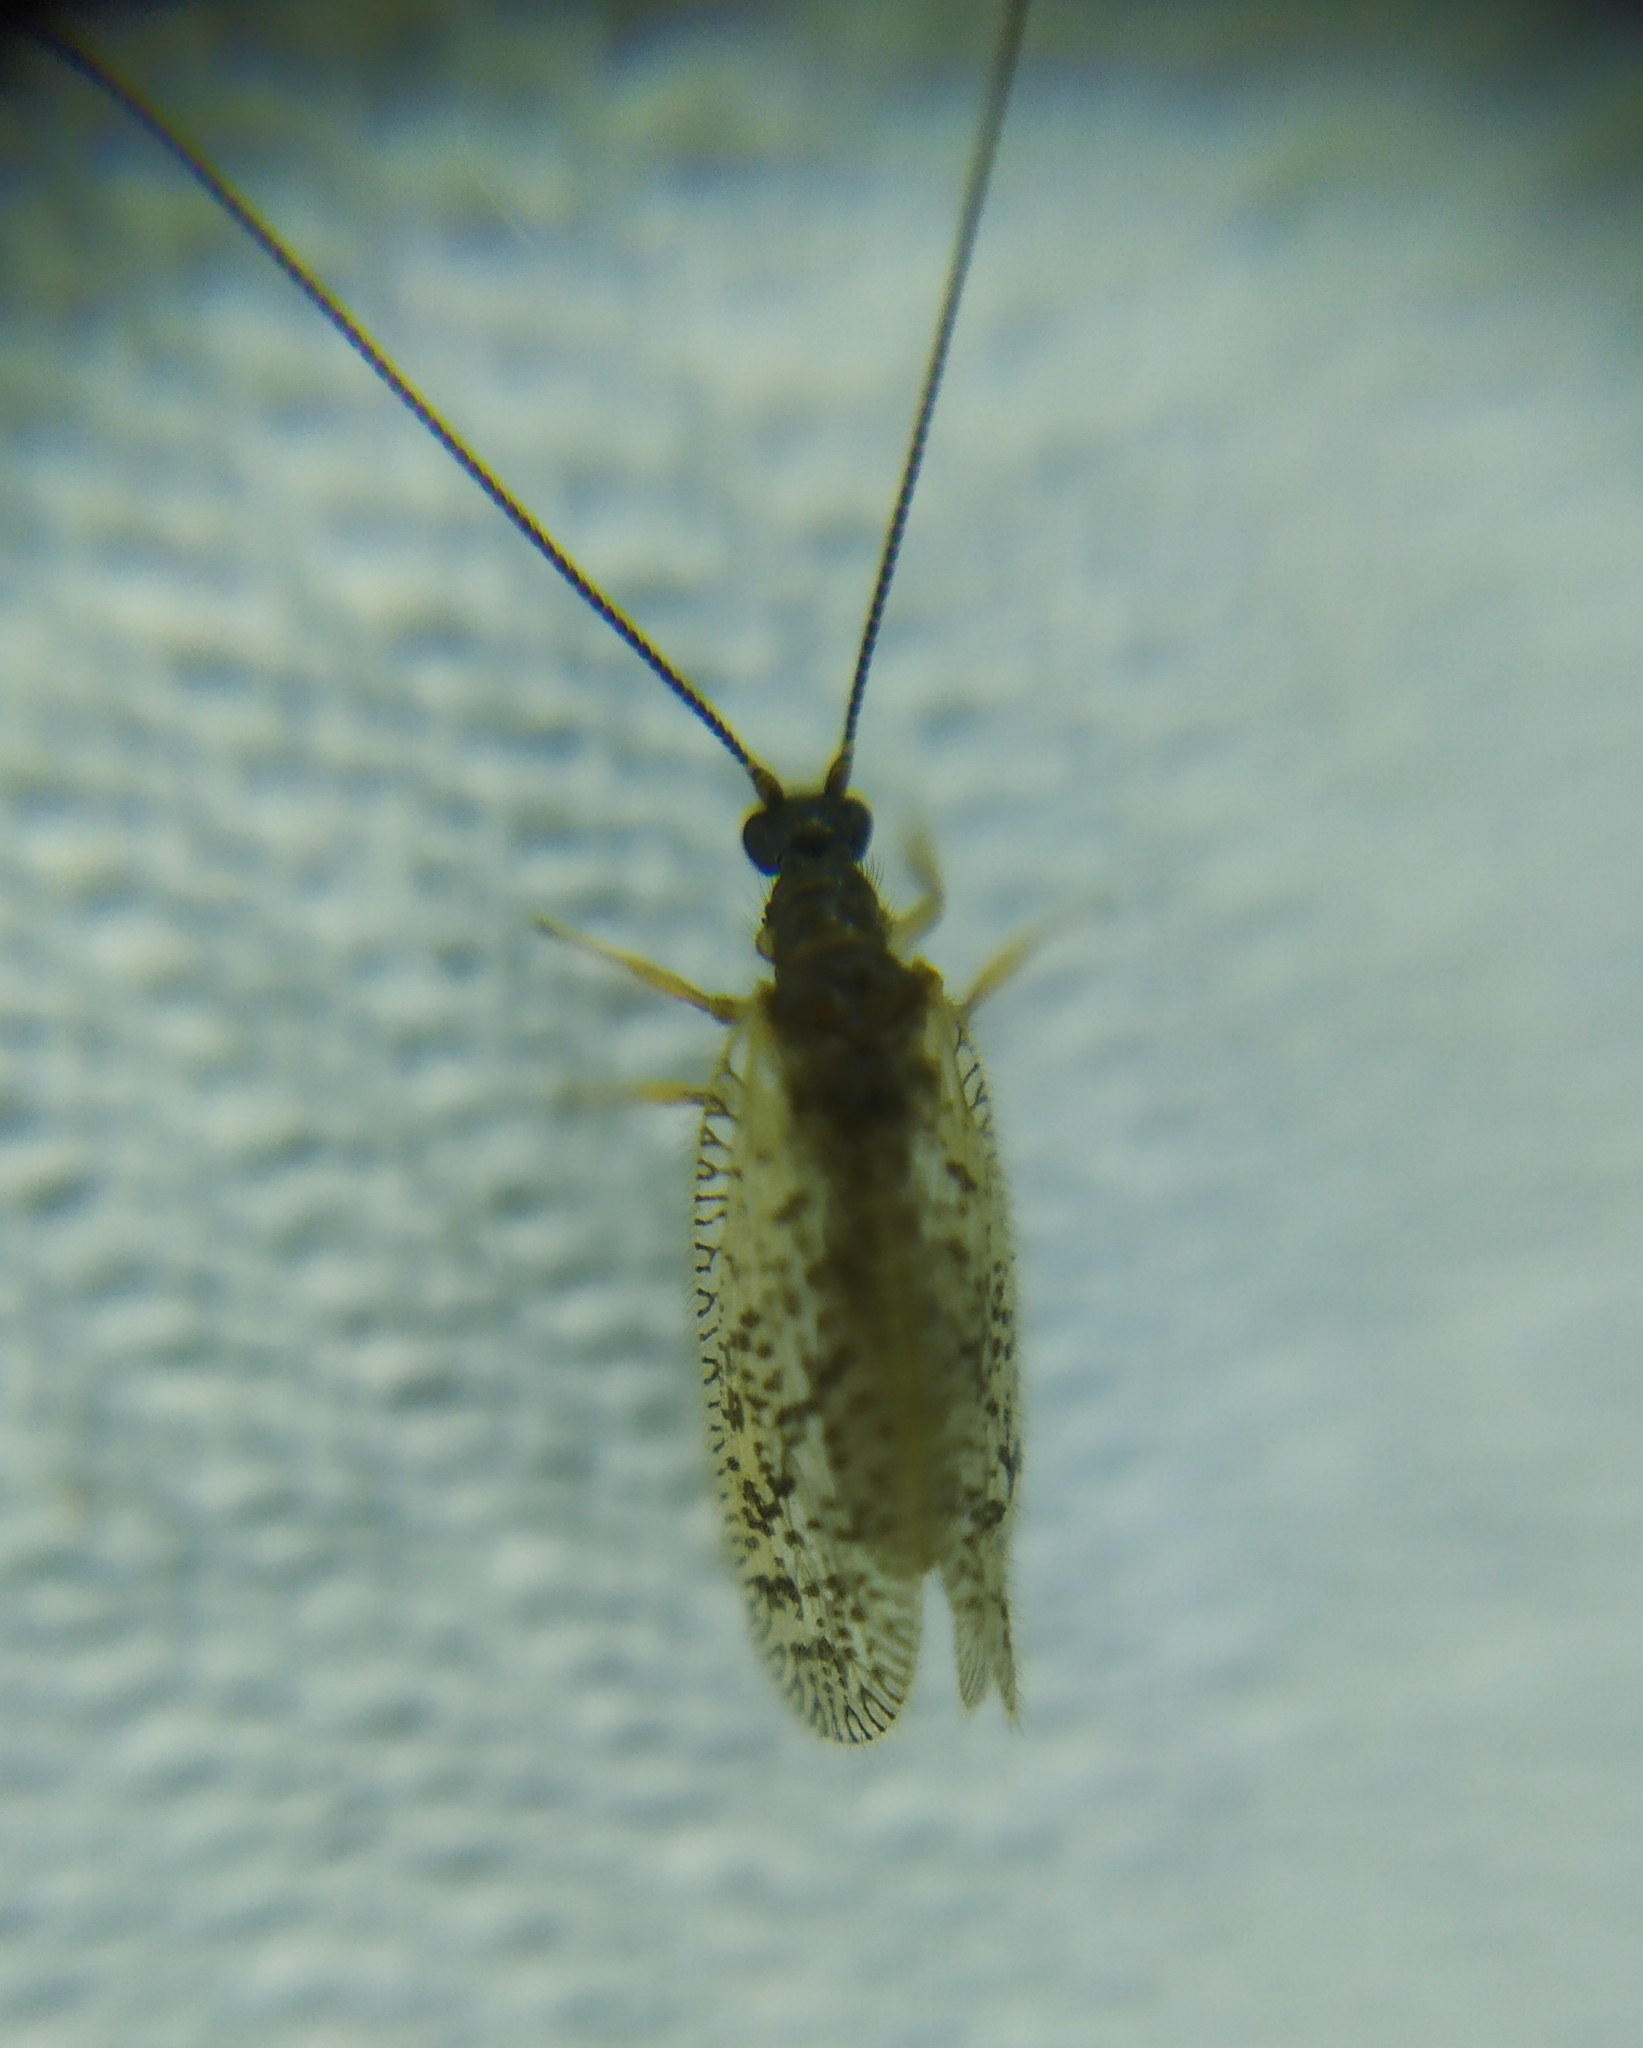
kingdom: Animalia
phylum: Arthropoda
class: Insecta
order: Neuroptera
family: Hemerobiidae
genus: Psectra
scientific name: Psectra diptera
